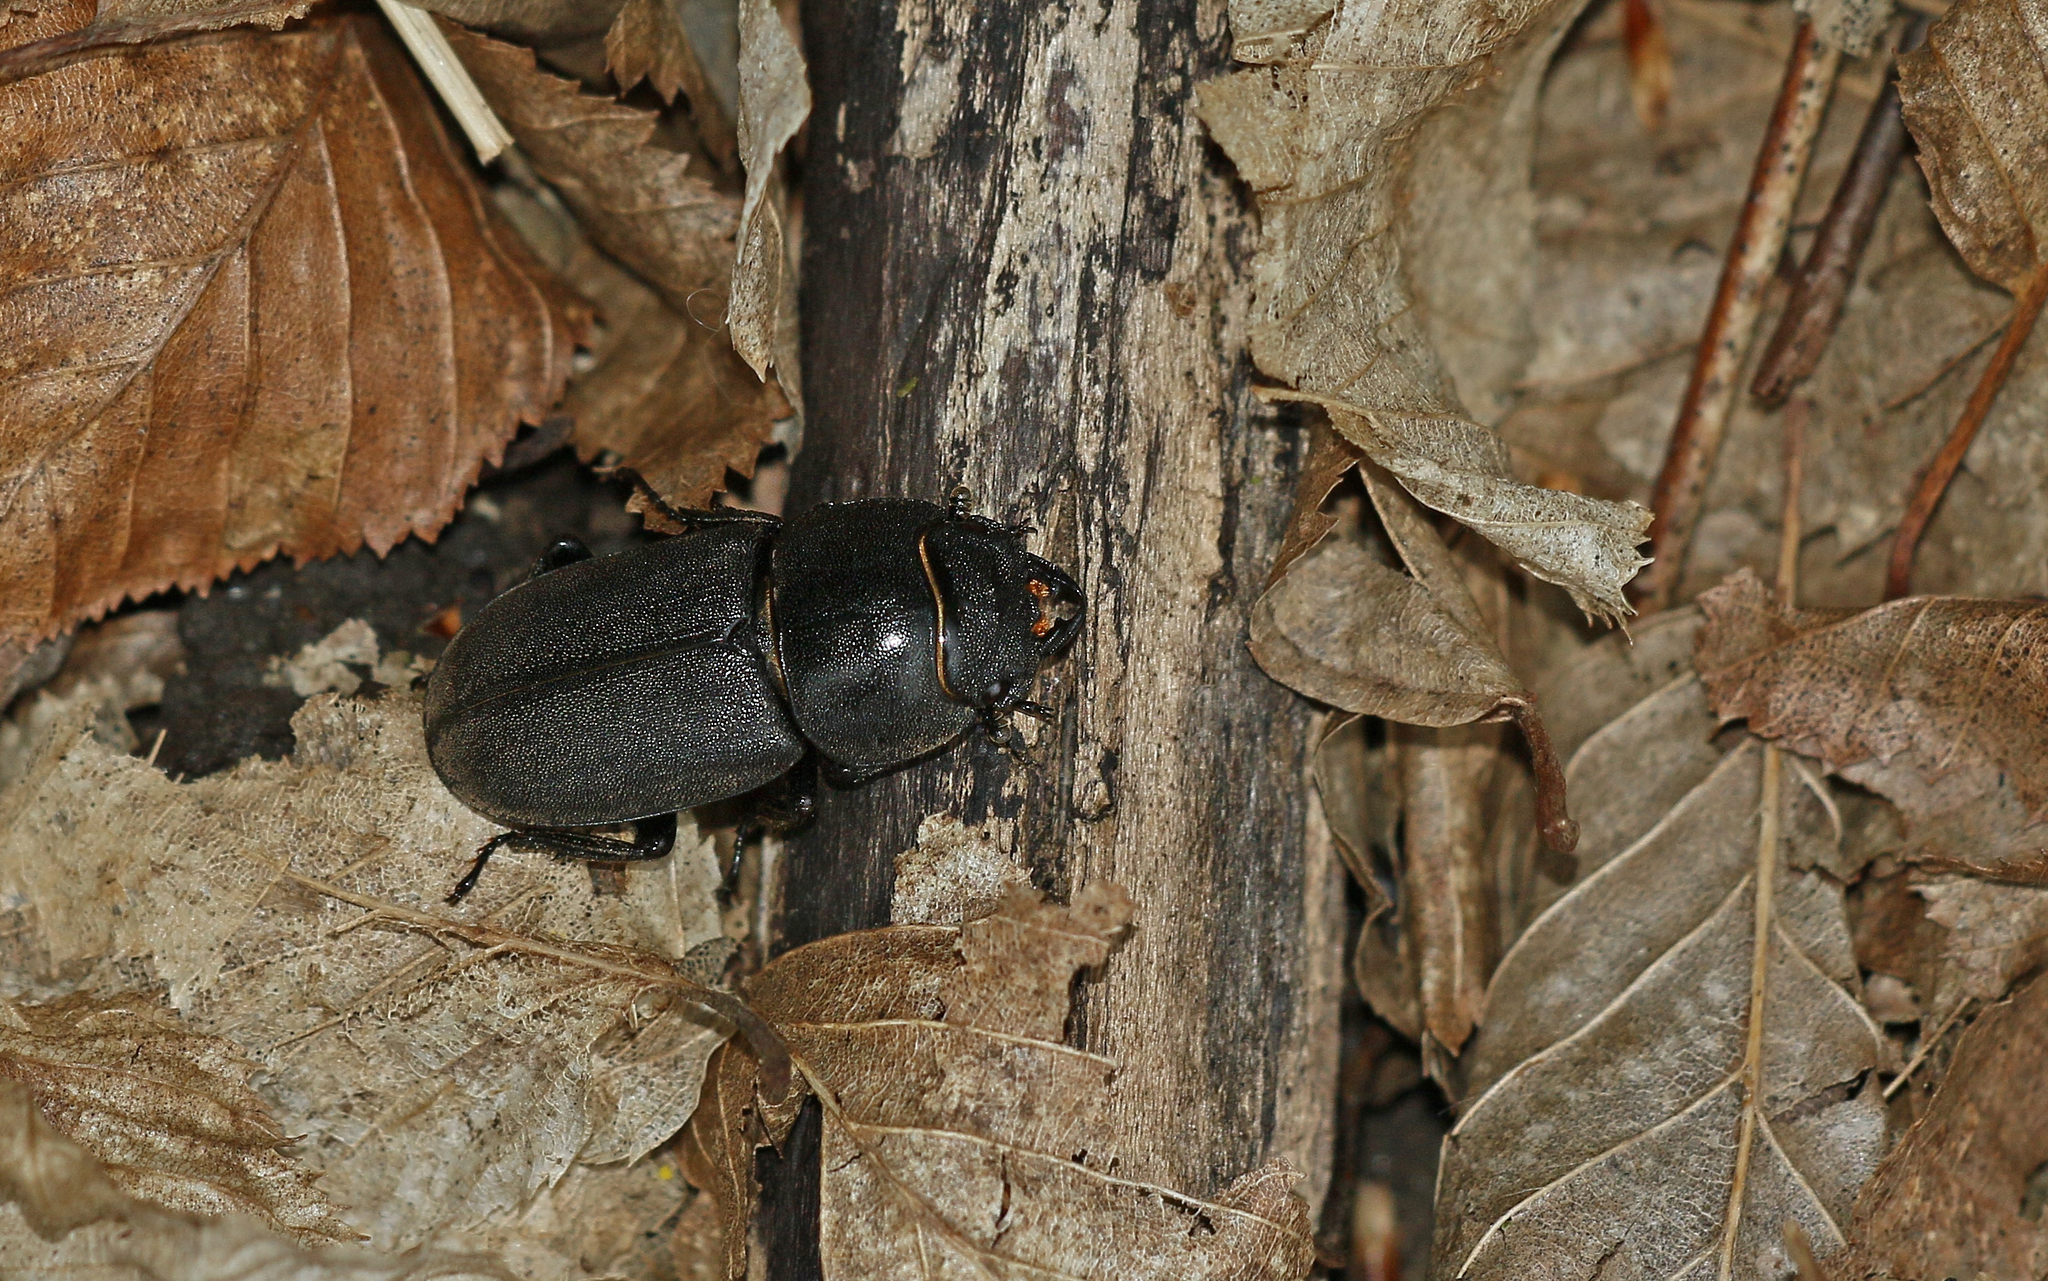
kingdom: Animalia
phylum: Arthropoda
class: Insecta
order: Coleoptera
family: Lucanidae
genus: Dorcus
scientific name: Dorcus parallelipipedus
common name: Lesser stag beetle
